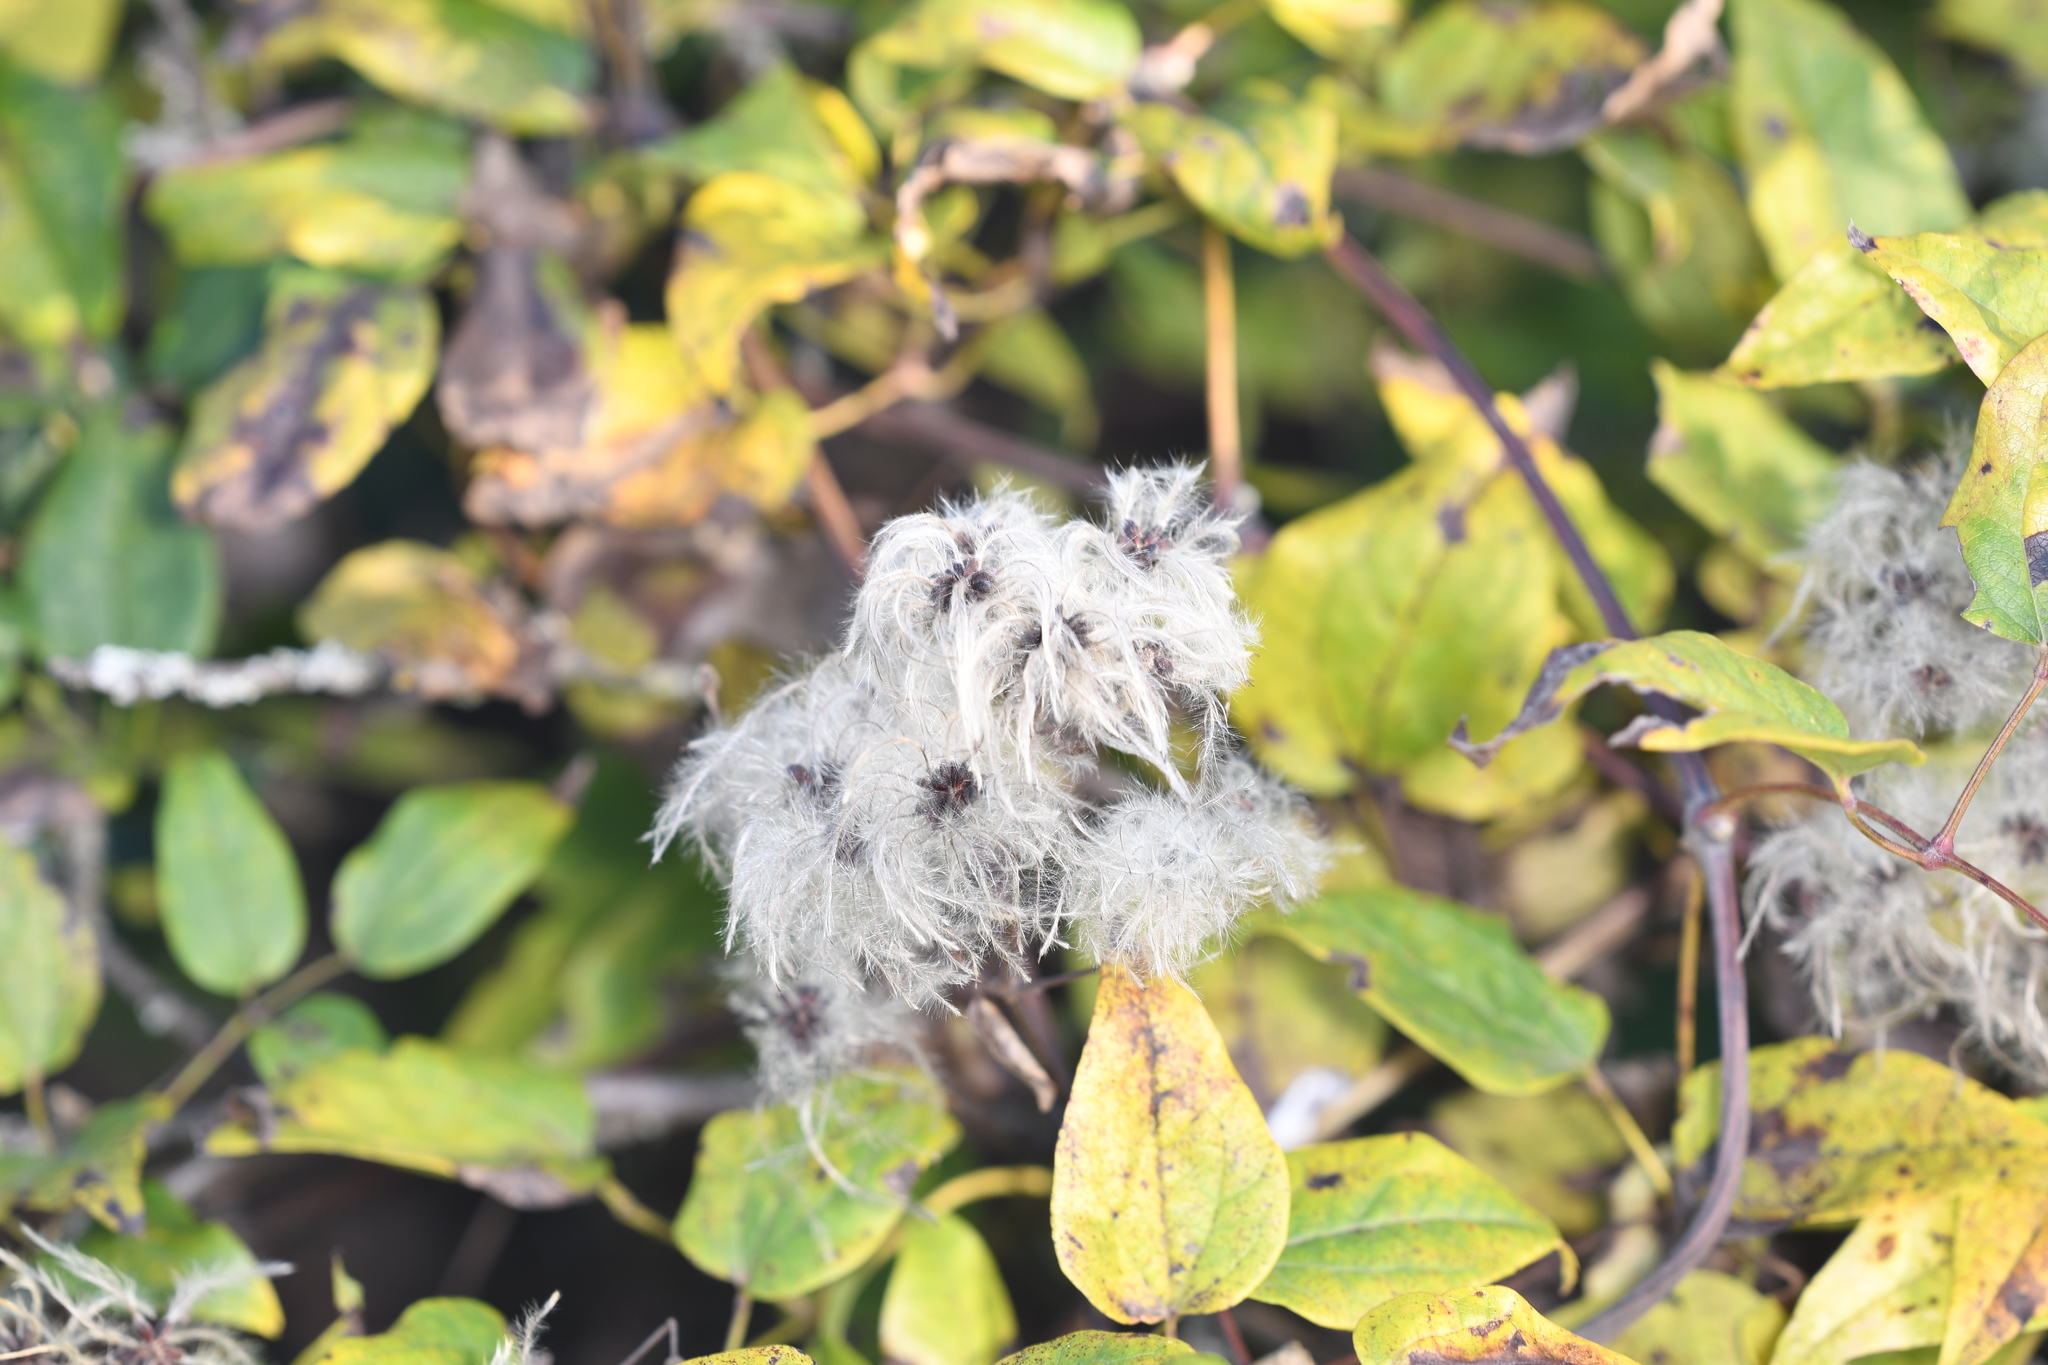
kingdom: Plantae
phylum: Tracheophyta
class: Magnoliopsida
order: Ranunculales
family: Ranunculaceae
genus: Clematis
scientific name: Clematis vitalba
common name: Evergreen clematis
